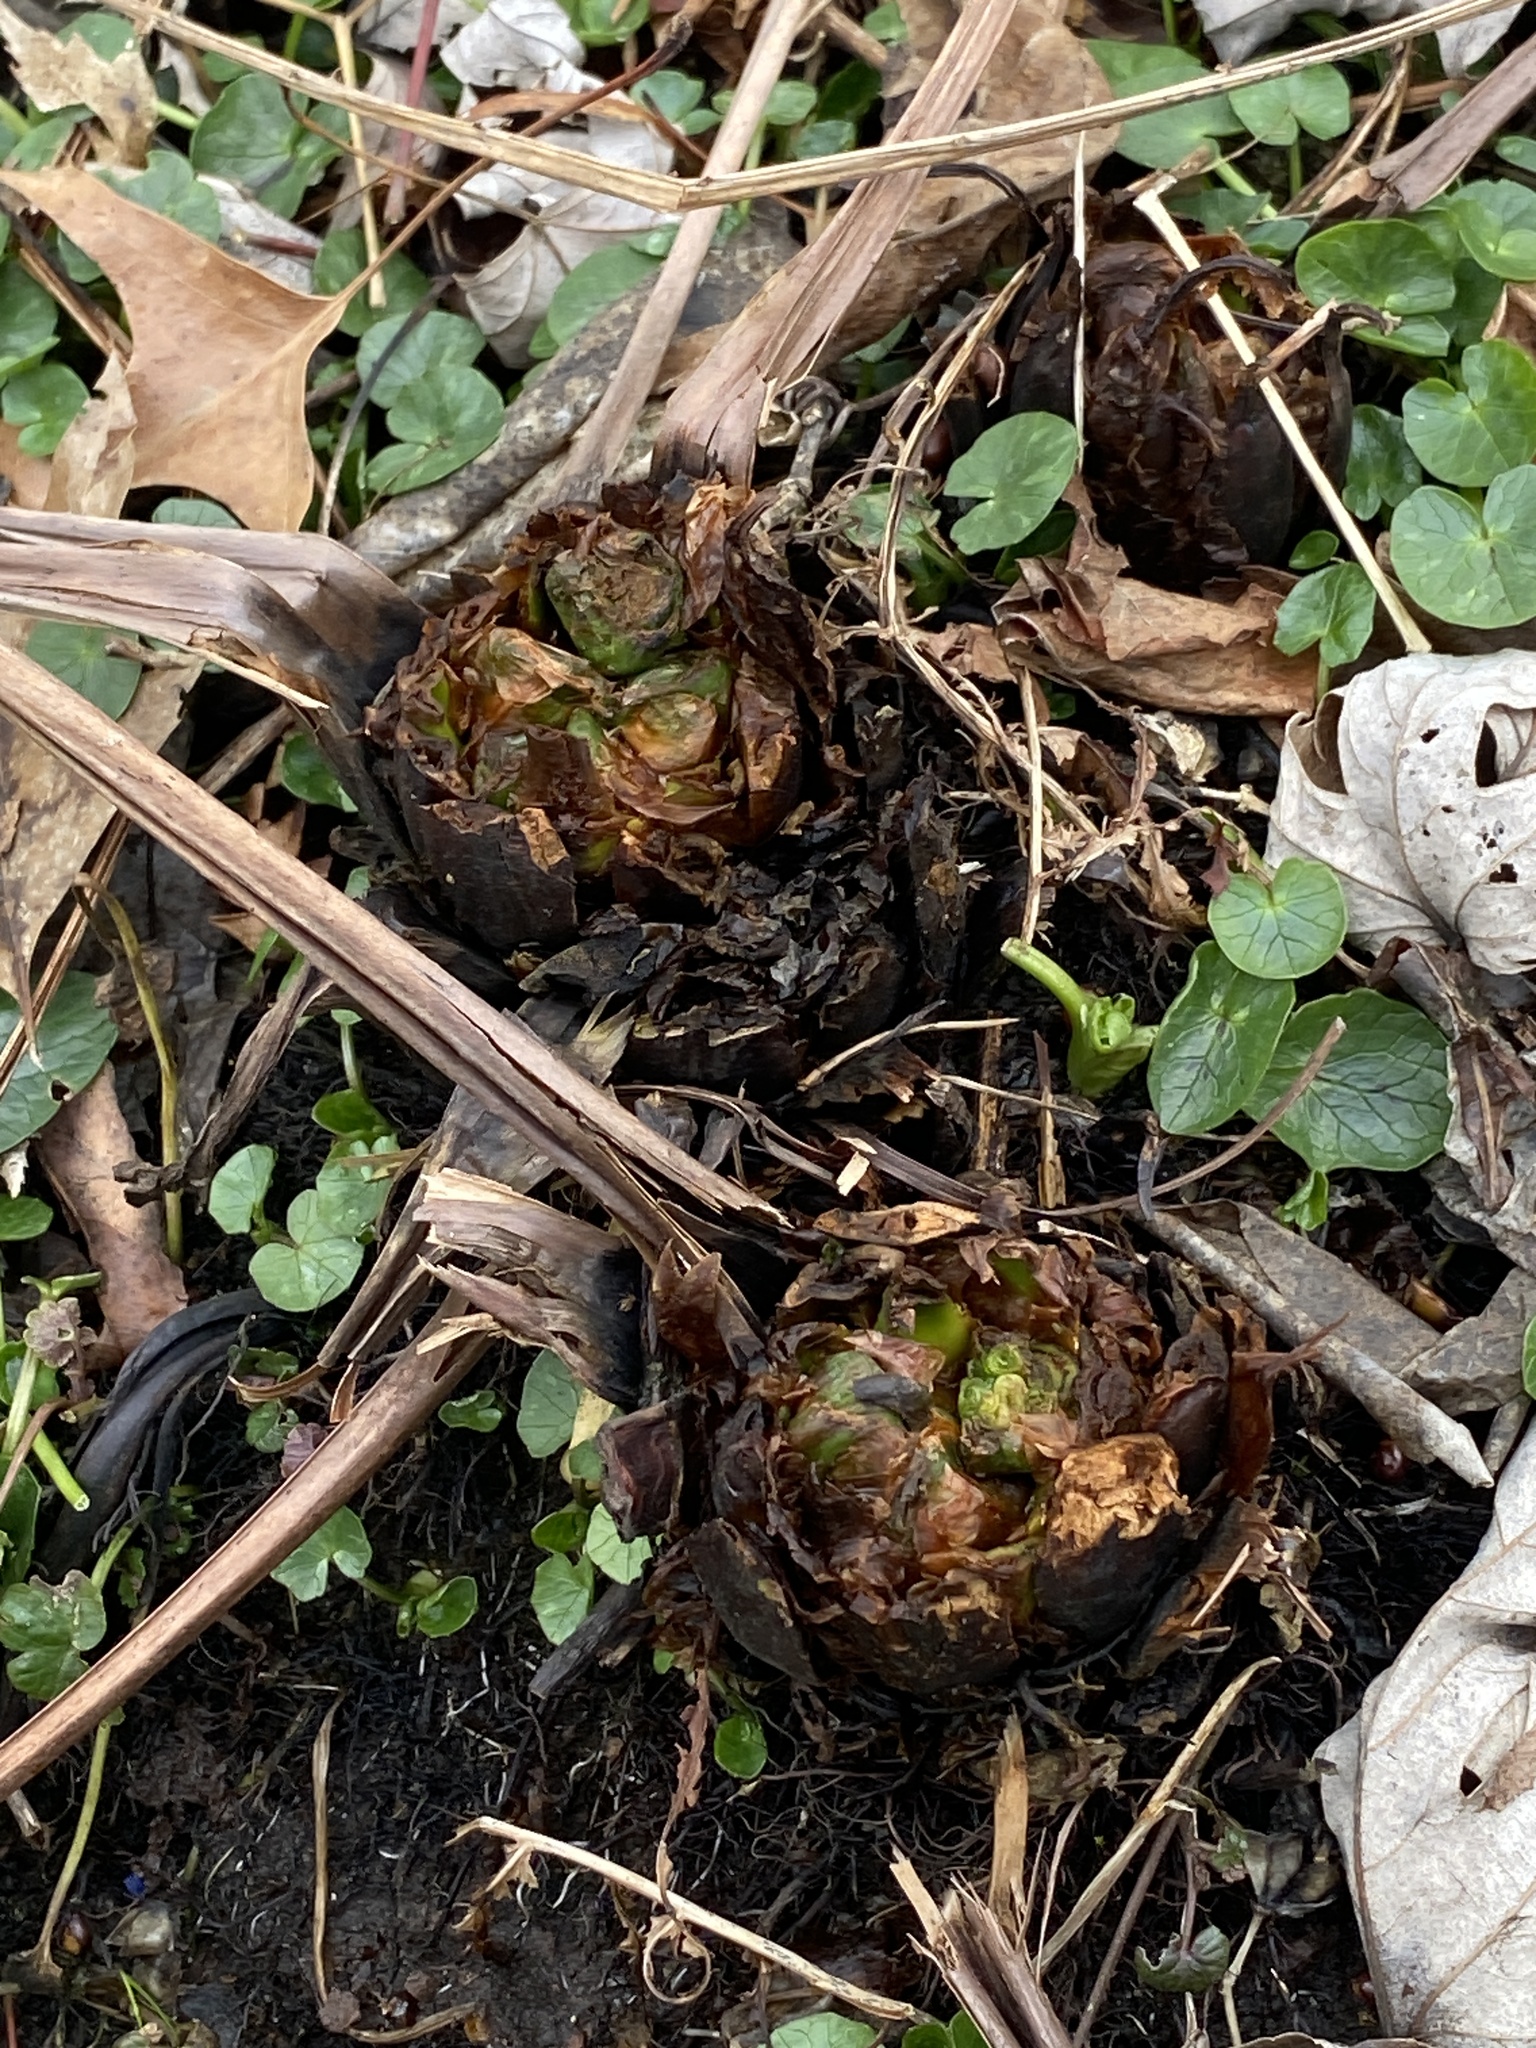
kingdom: Plantae
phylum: Tracheophyta
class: Polypodiopsida
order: Polypodiales
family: Onocleaceae
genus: Matteuccia
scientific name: Matteuccia struthiopteris
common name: Ostrich fern
